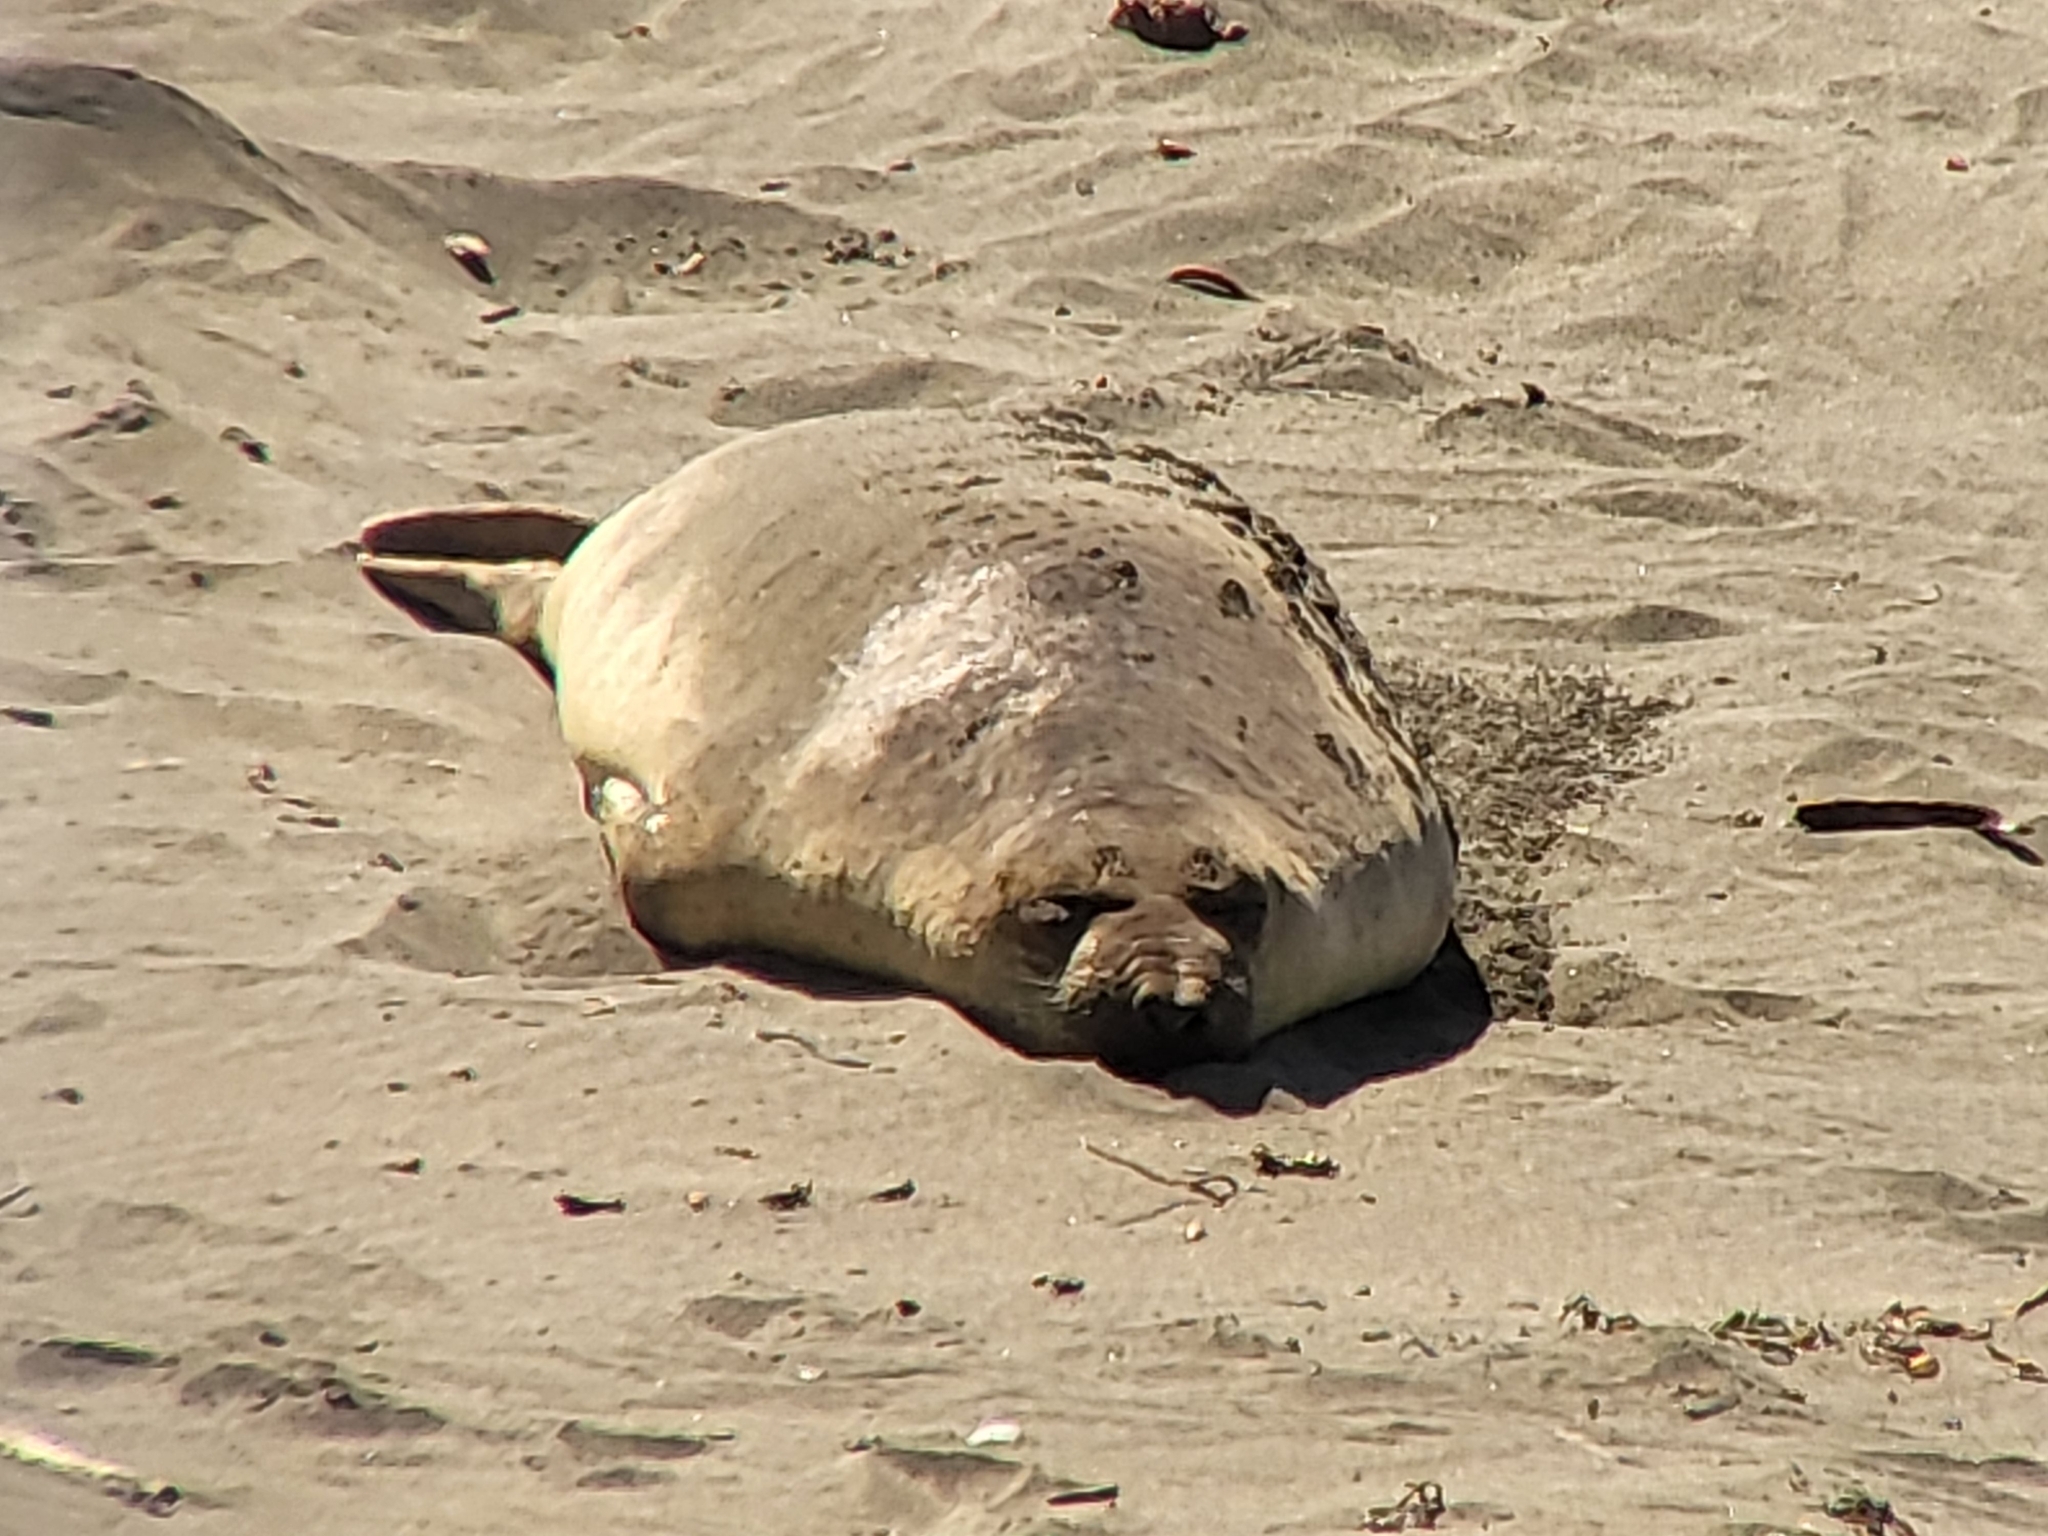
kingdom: Animalia
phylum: Chordata
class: Mammalia
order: Carnivora
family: Phocidae
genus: Mirounga
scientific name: Mirounga angustirostris
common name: Northern elephant seal
